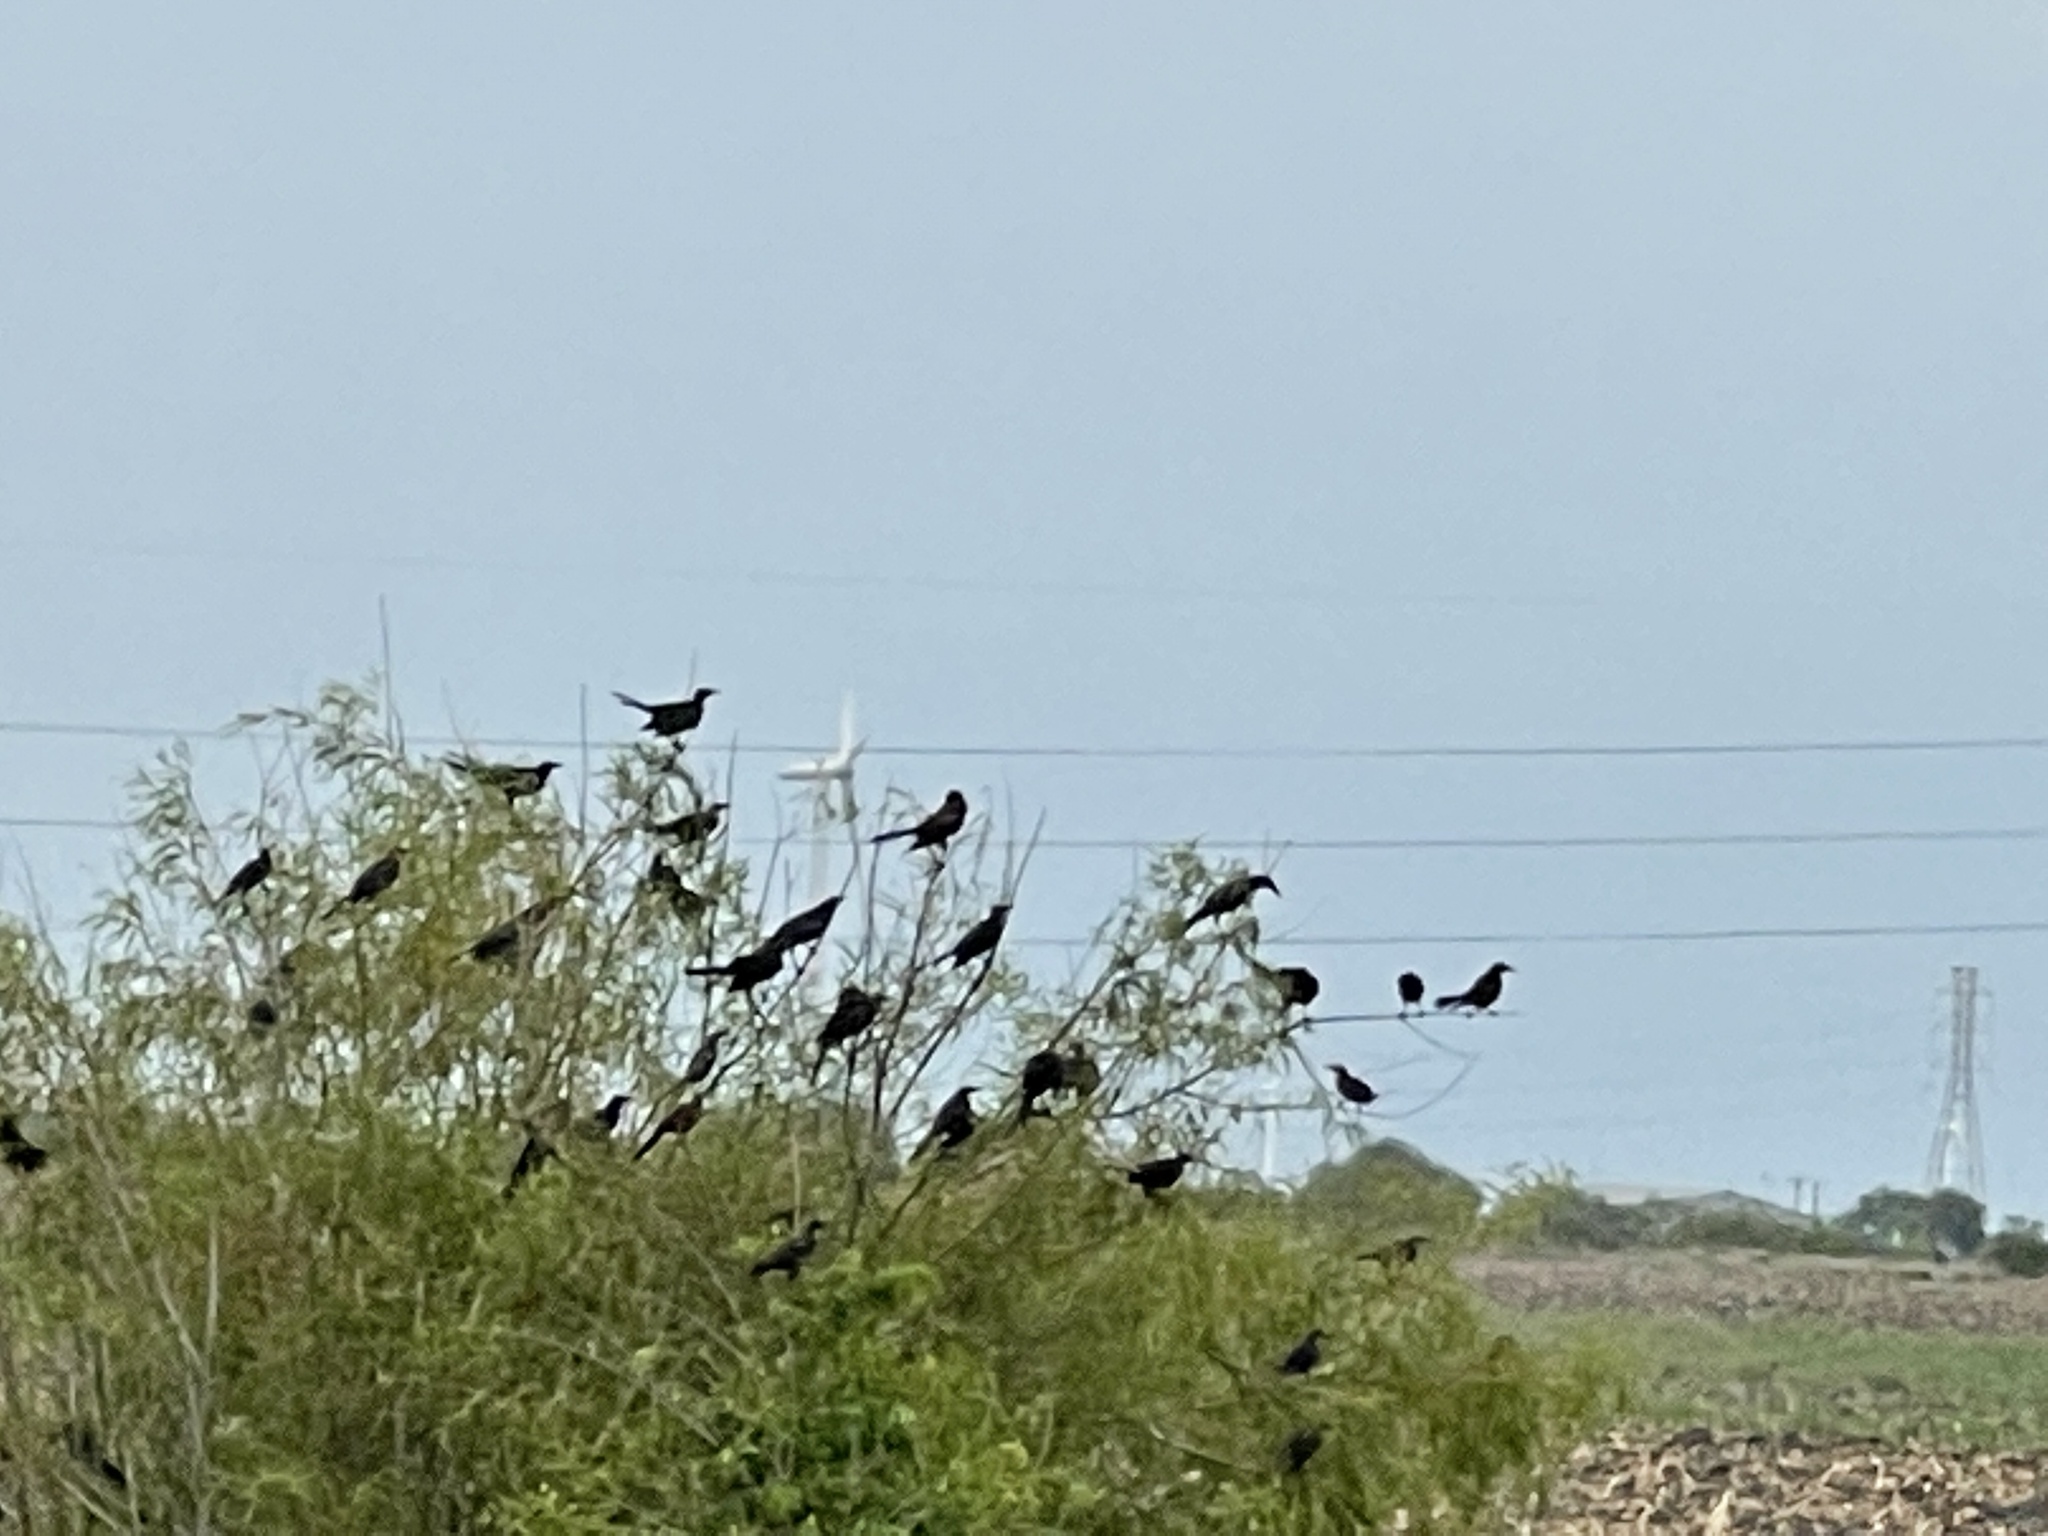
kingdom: Animalia
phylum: Chordata
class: Aves
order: Passeriformes
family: Icteridae
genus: Quiscalus
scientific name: Quiscalus mexicanus
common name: Great-tailed grackle
